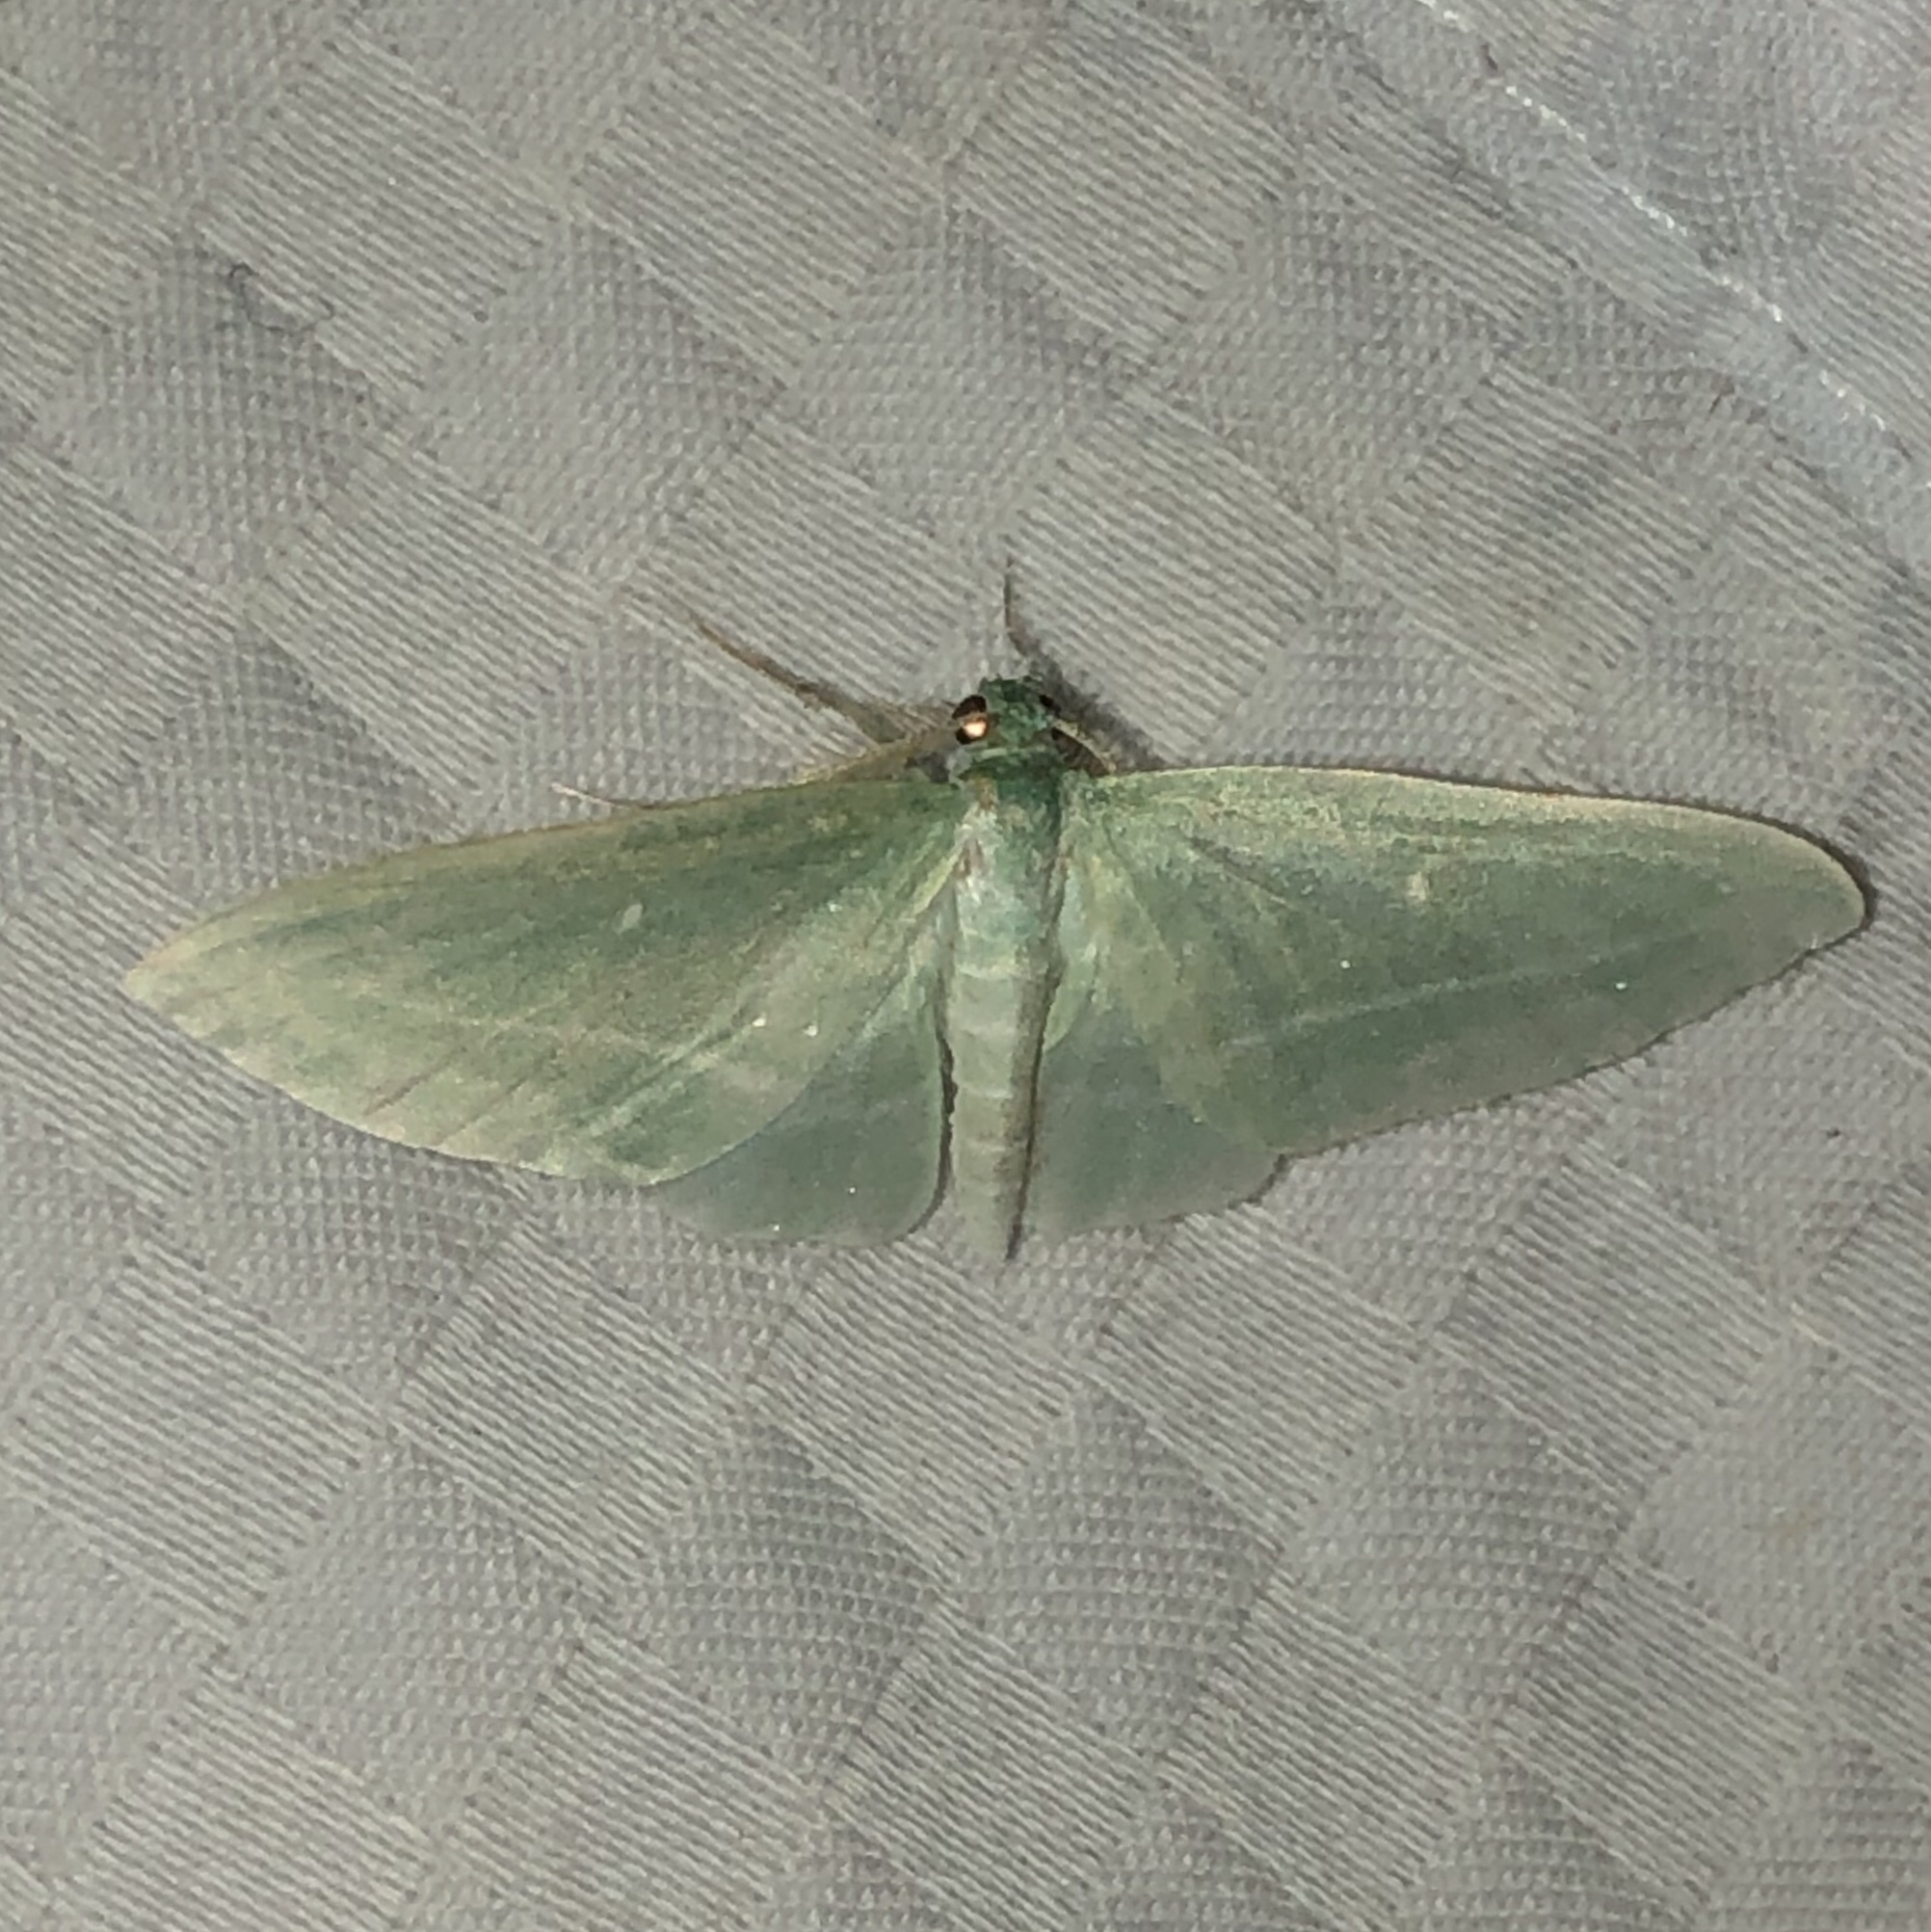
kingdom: Animalia
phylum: Arthropoda
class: Insecta
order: Lepidoptera
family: Geometridae
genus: Dyspteris
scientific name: Dyspteris abortivaria
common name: Bad-wing
